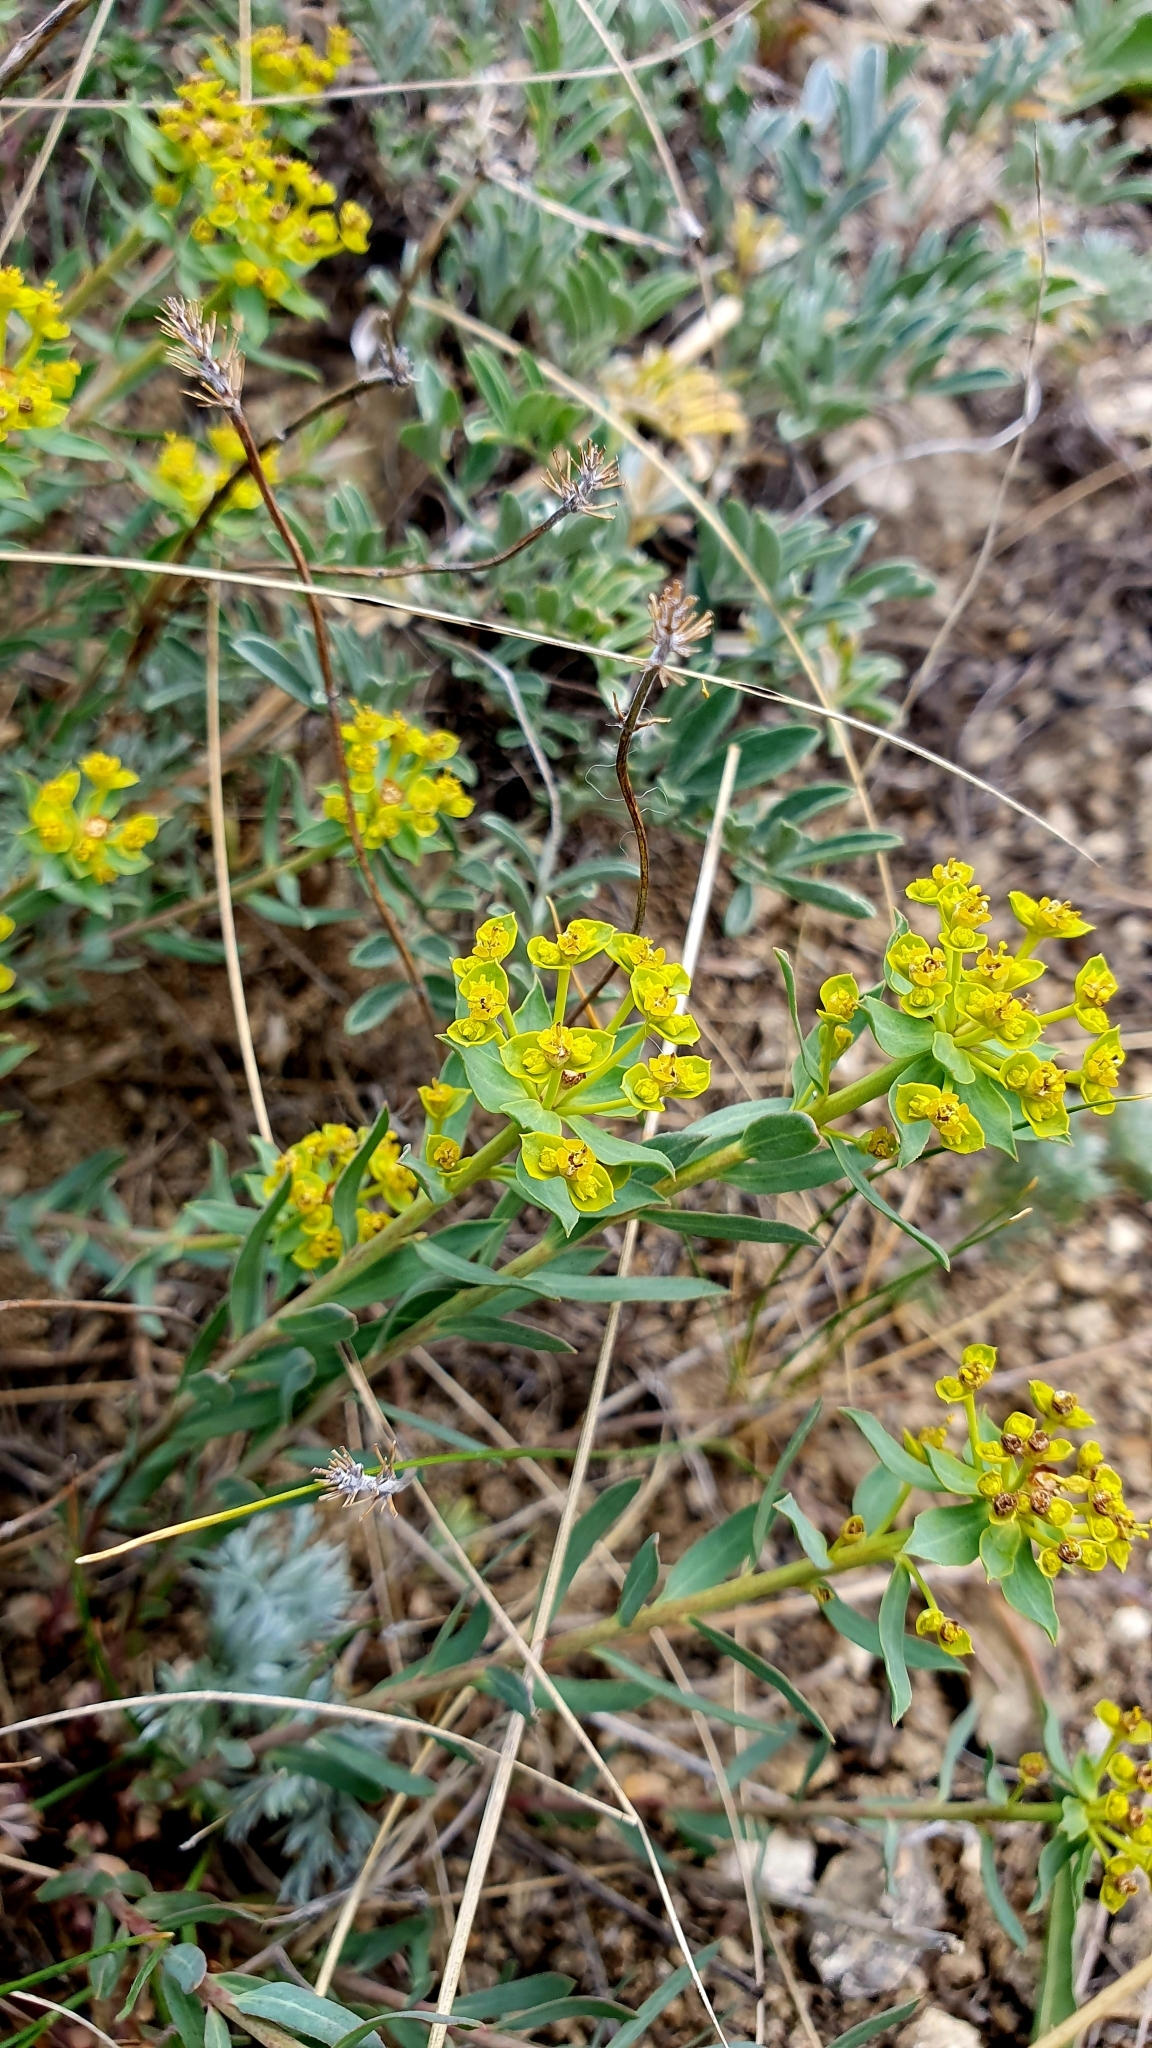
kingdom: Plantae
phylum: Tracheophyta
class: Magnoliopsida
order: Malpighiales
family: Euphorbiaceae
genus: Euphorbia
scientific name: Euphorbia seguieriana
